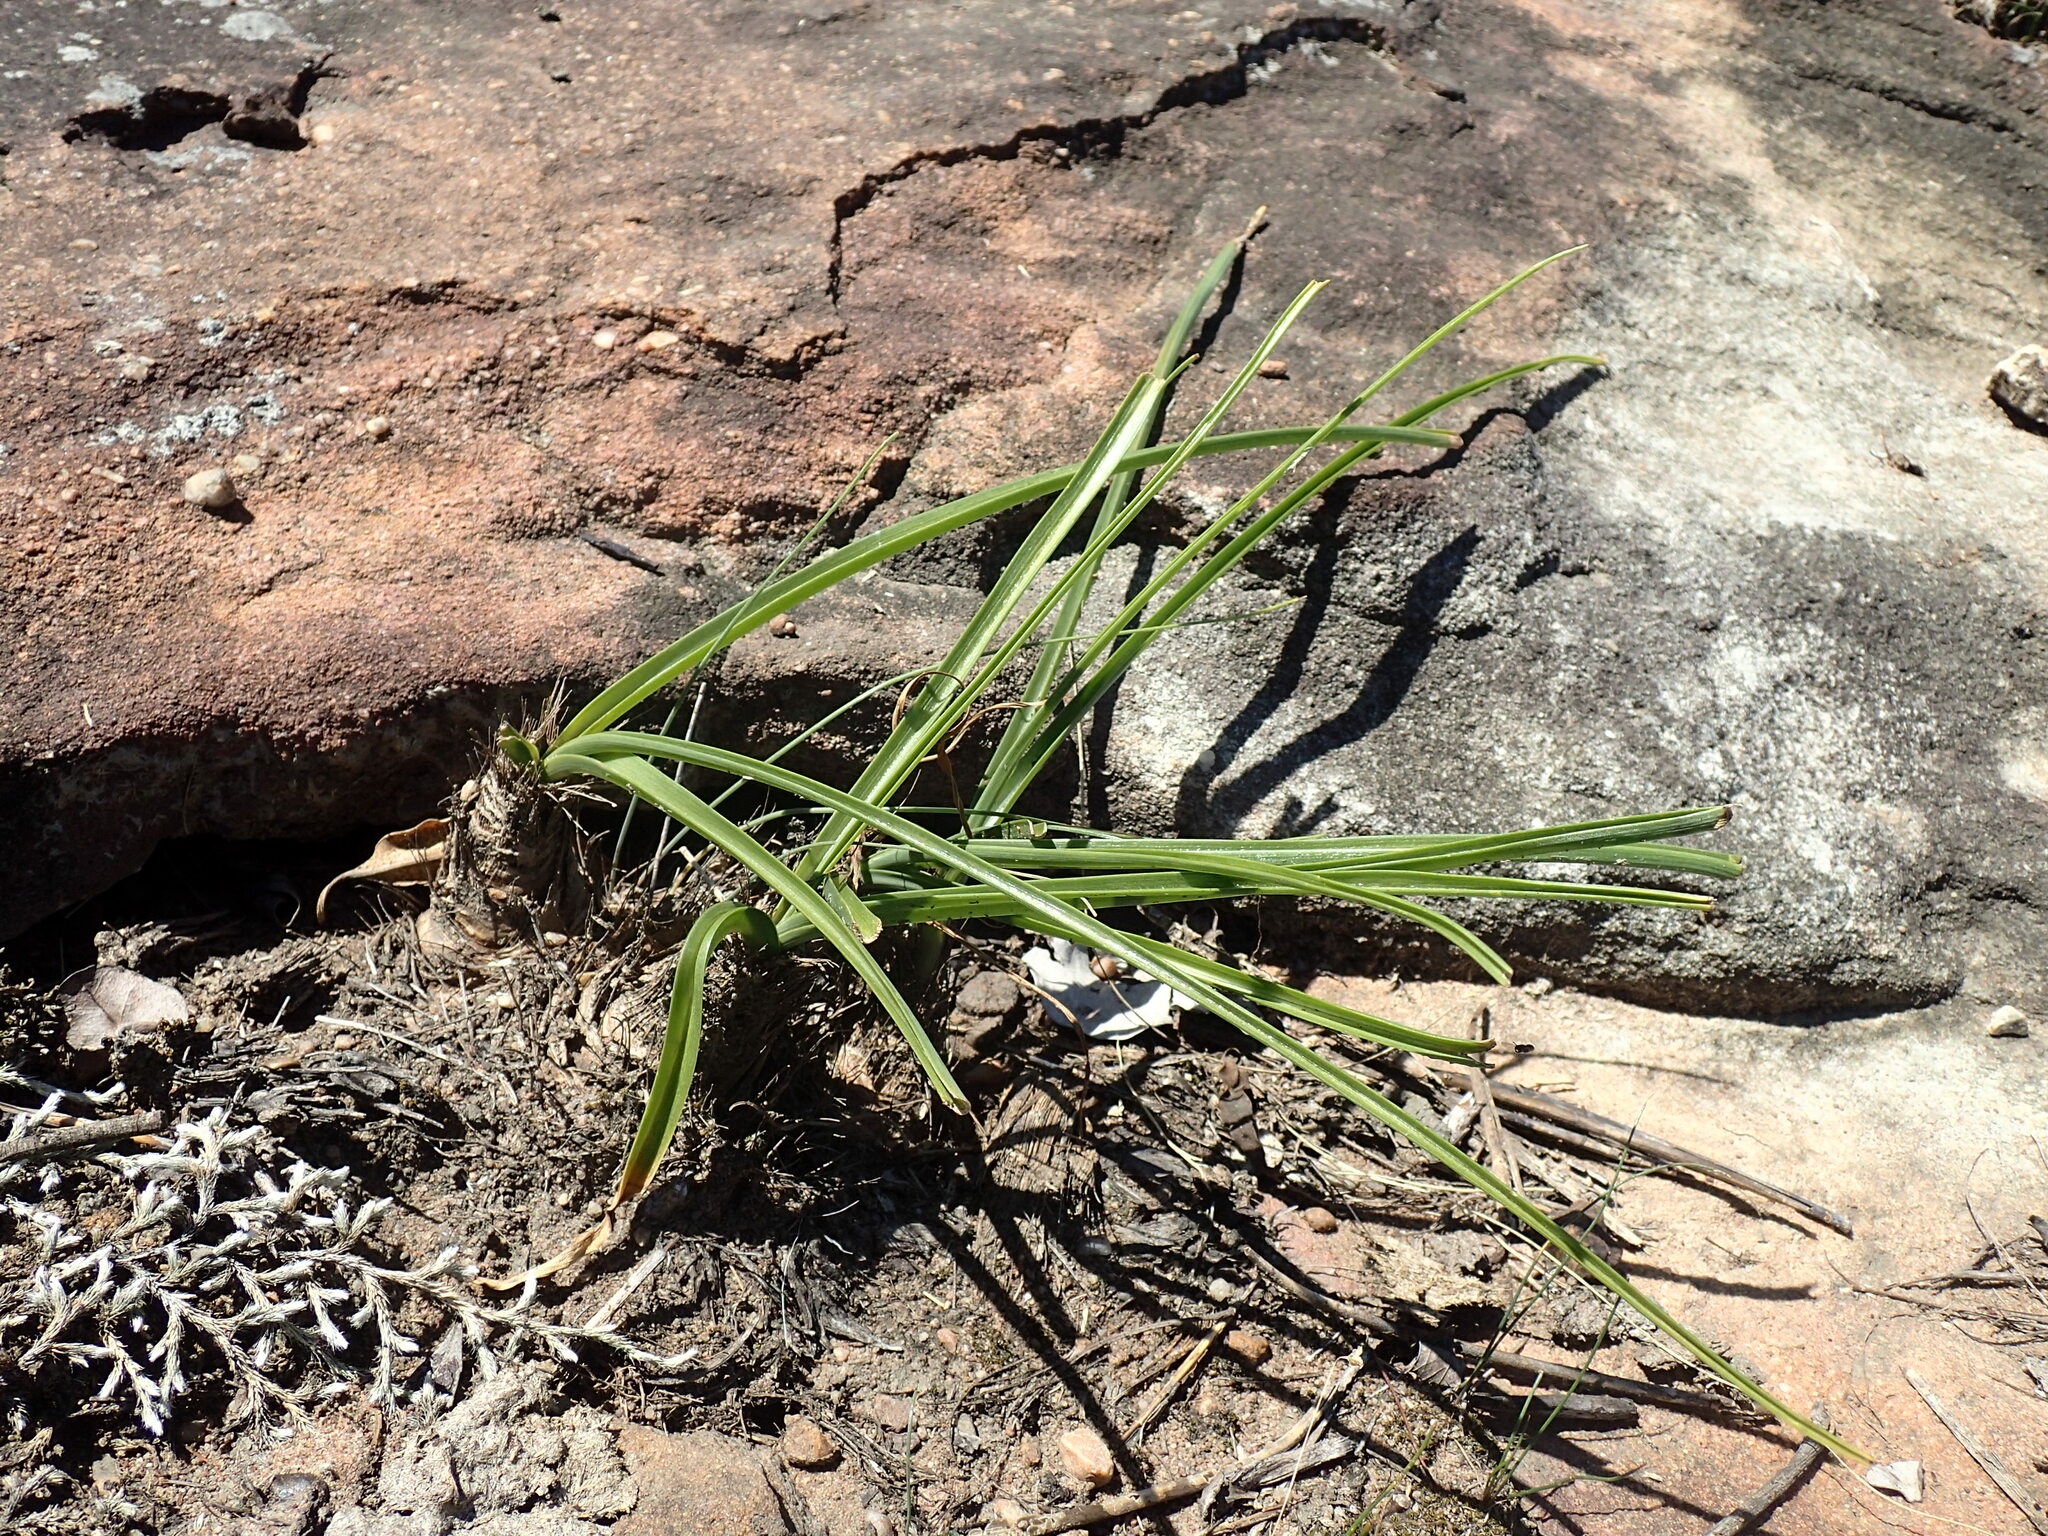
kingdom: Plantae
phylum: Tracheophyta
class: Liliopsida
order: Asparagales
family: Asparagaceae
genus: Albuca
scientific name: Albuca setosa
